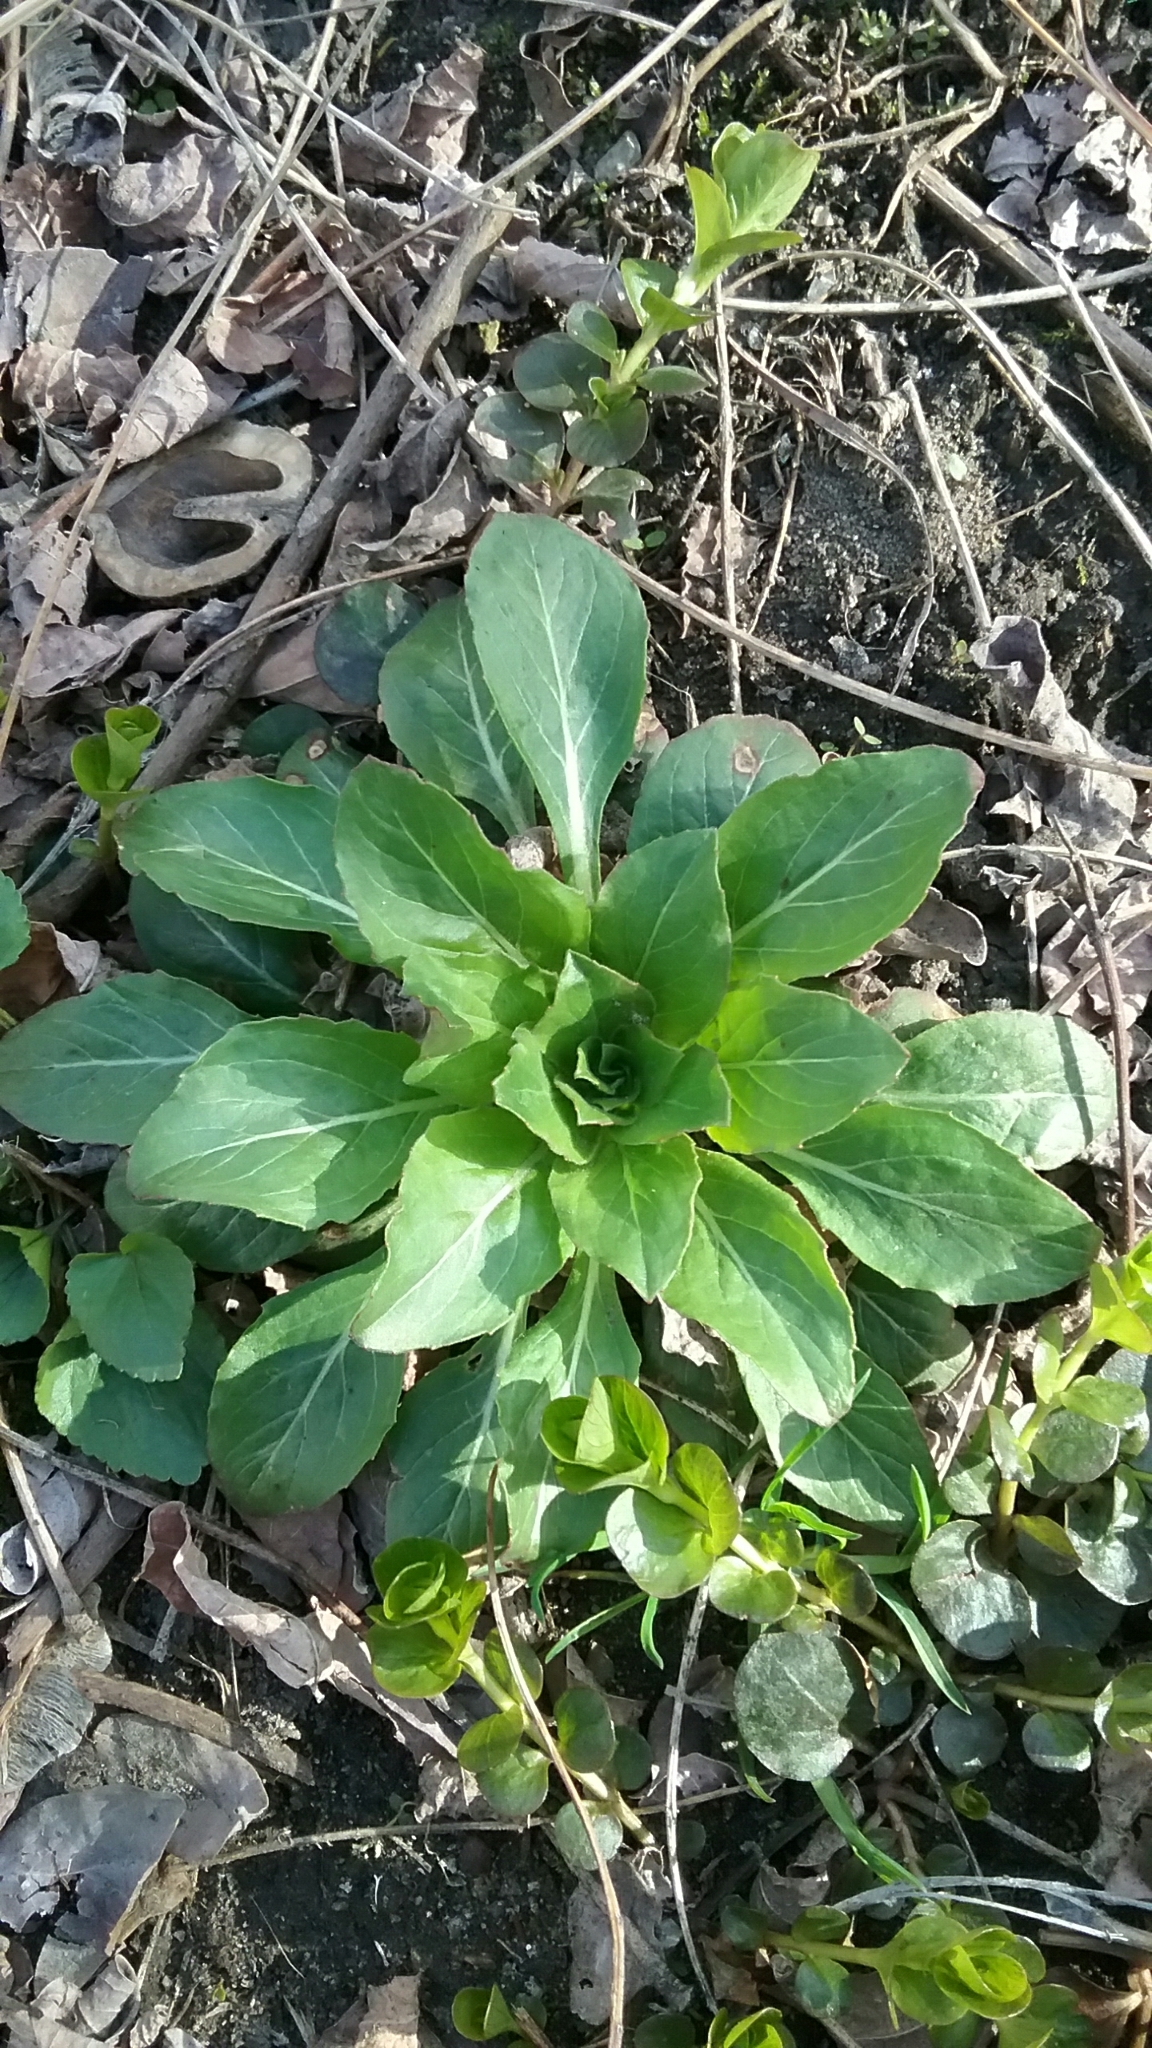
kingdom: Plantae
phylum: Tracheophyta
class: Magnoliopsida
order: Myrtales
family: Onagraceae
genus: Oenothera
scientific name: Oenothera biennis
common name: Common evening-primrose
